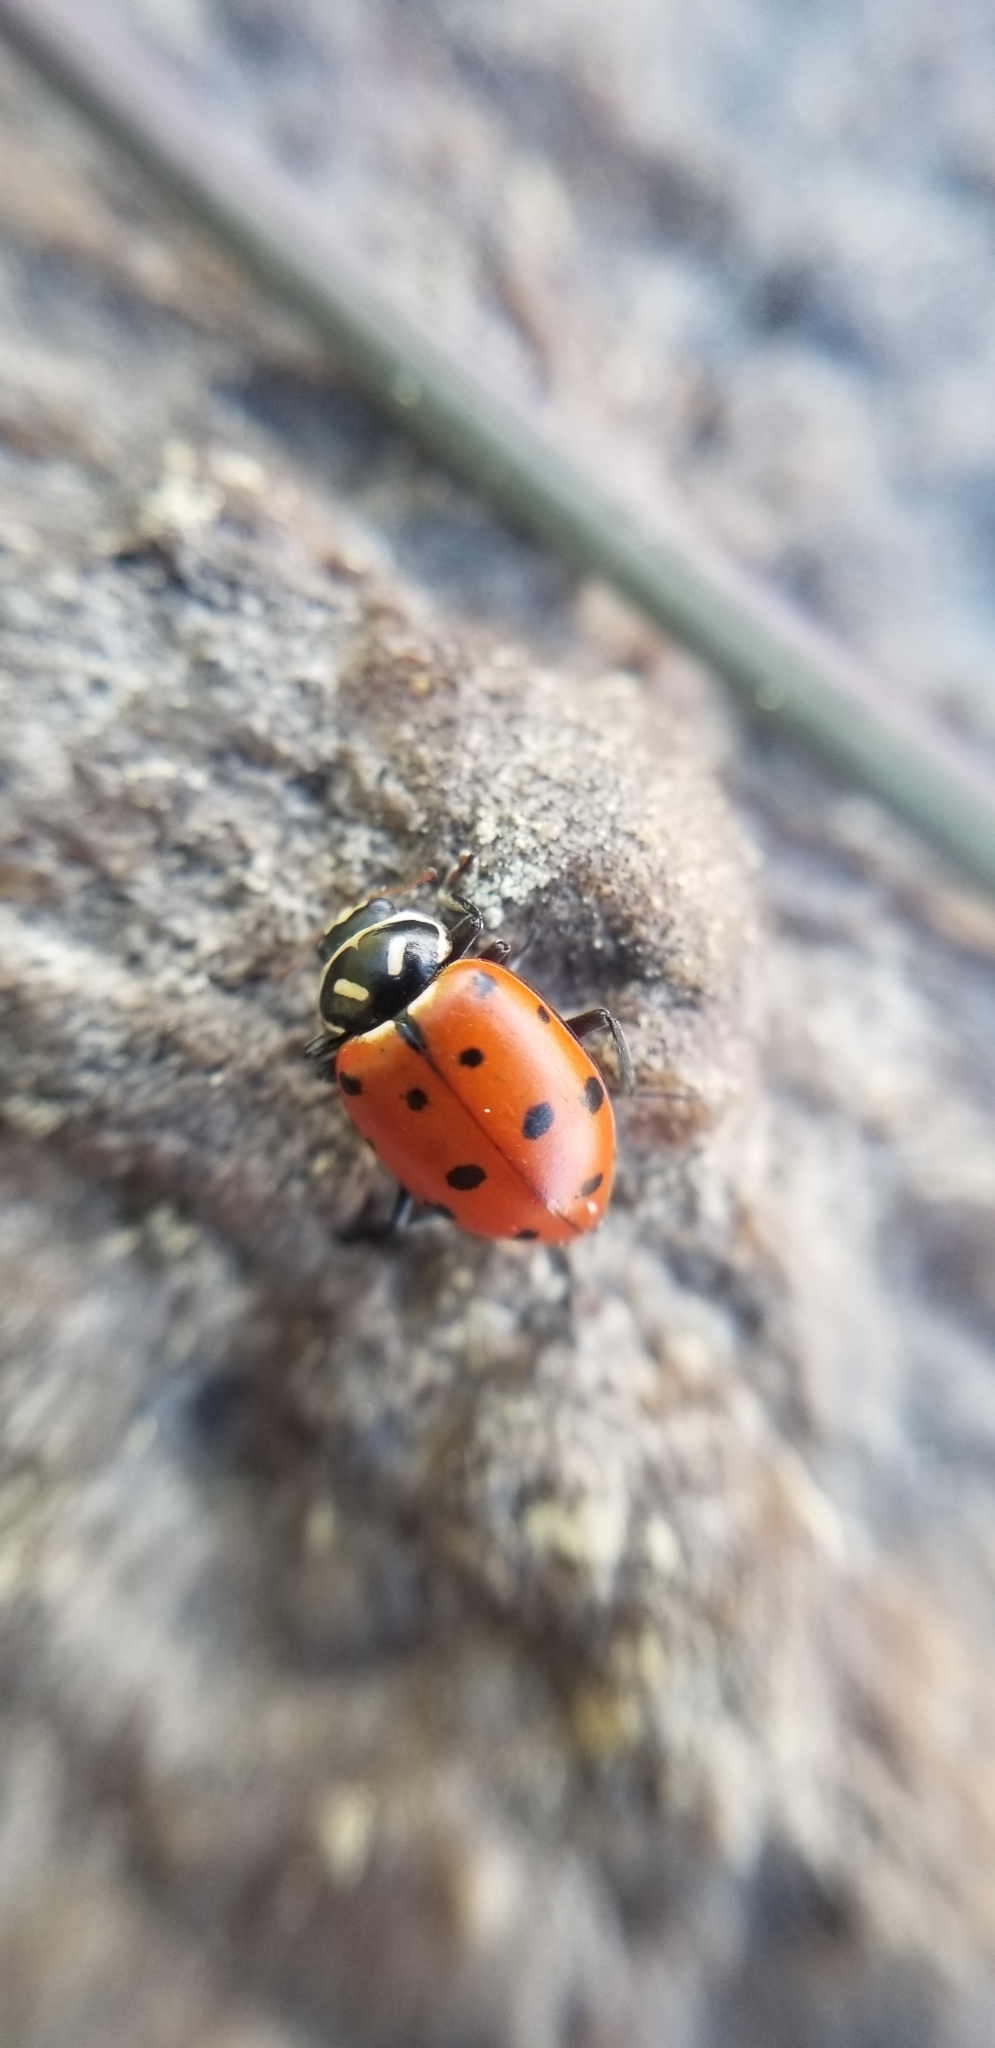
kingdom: Animalia
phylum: Arthropoda
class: Insecta
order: Coleoptera
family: Coccinellidae
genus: Hippodamia
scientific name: Hippodamia convergens
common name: Convergent lady beetle
